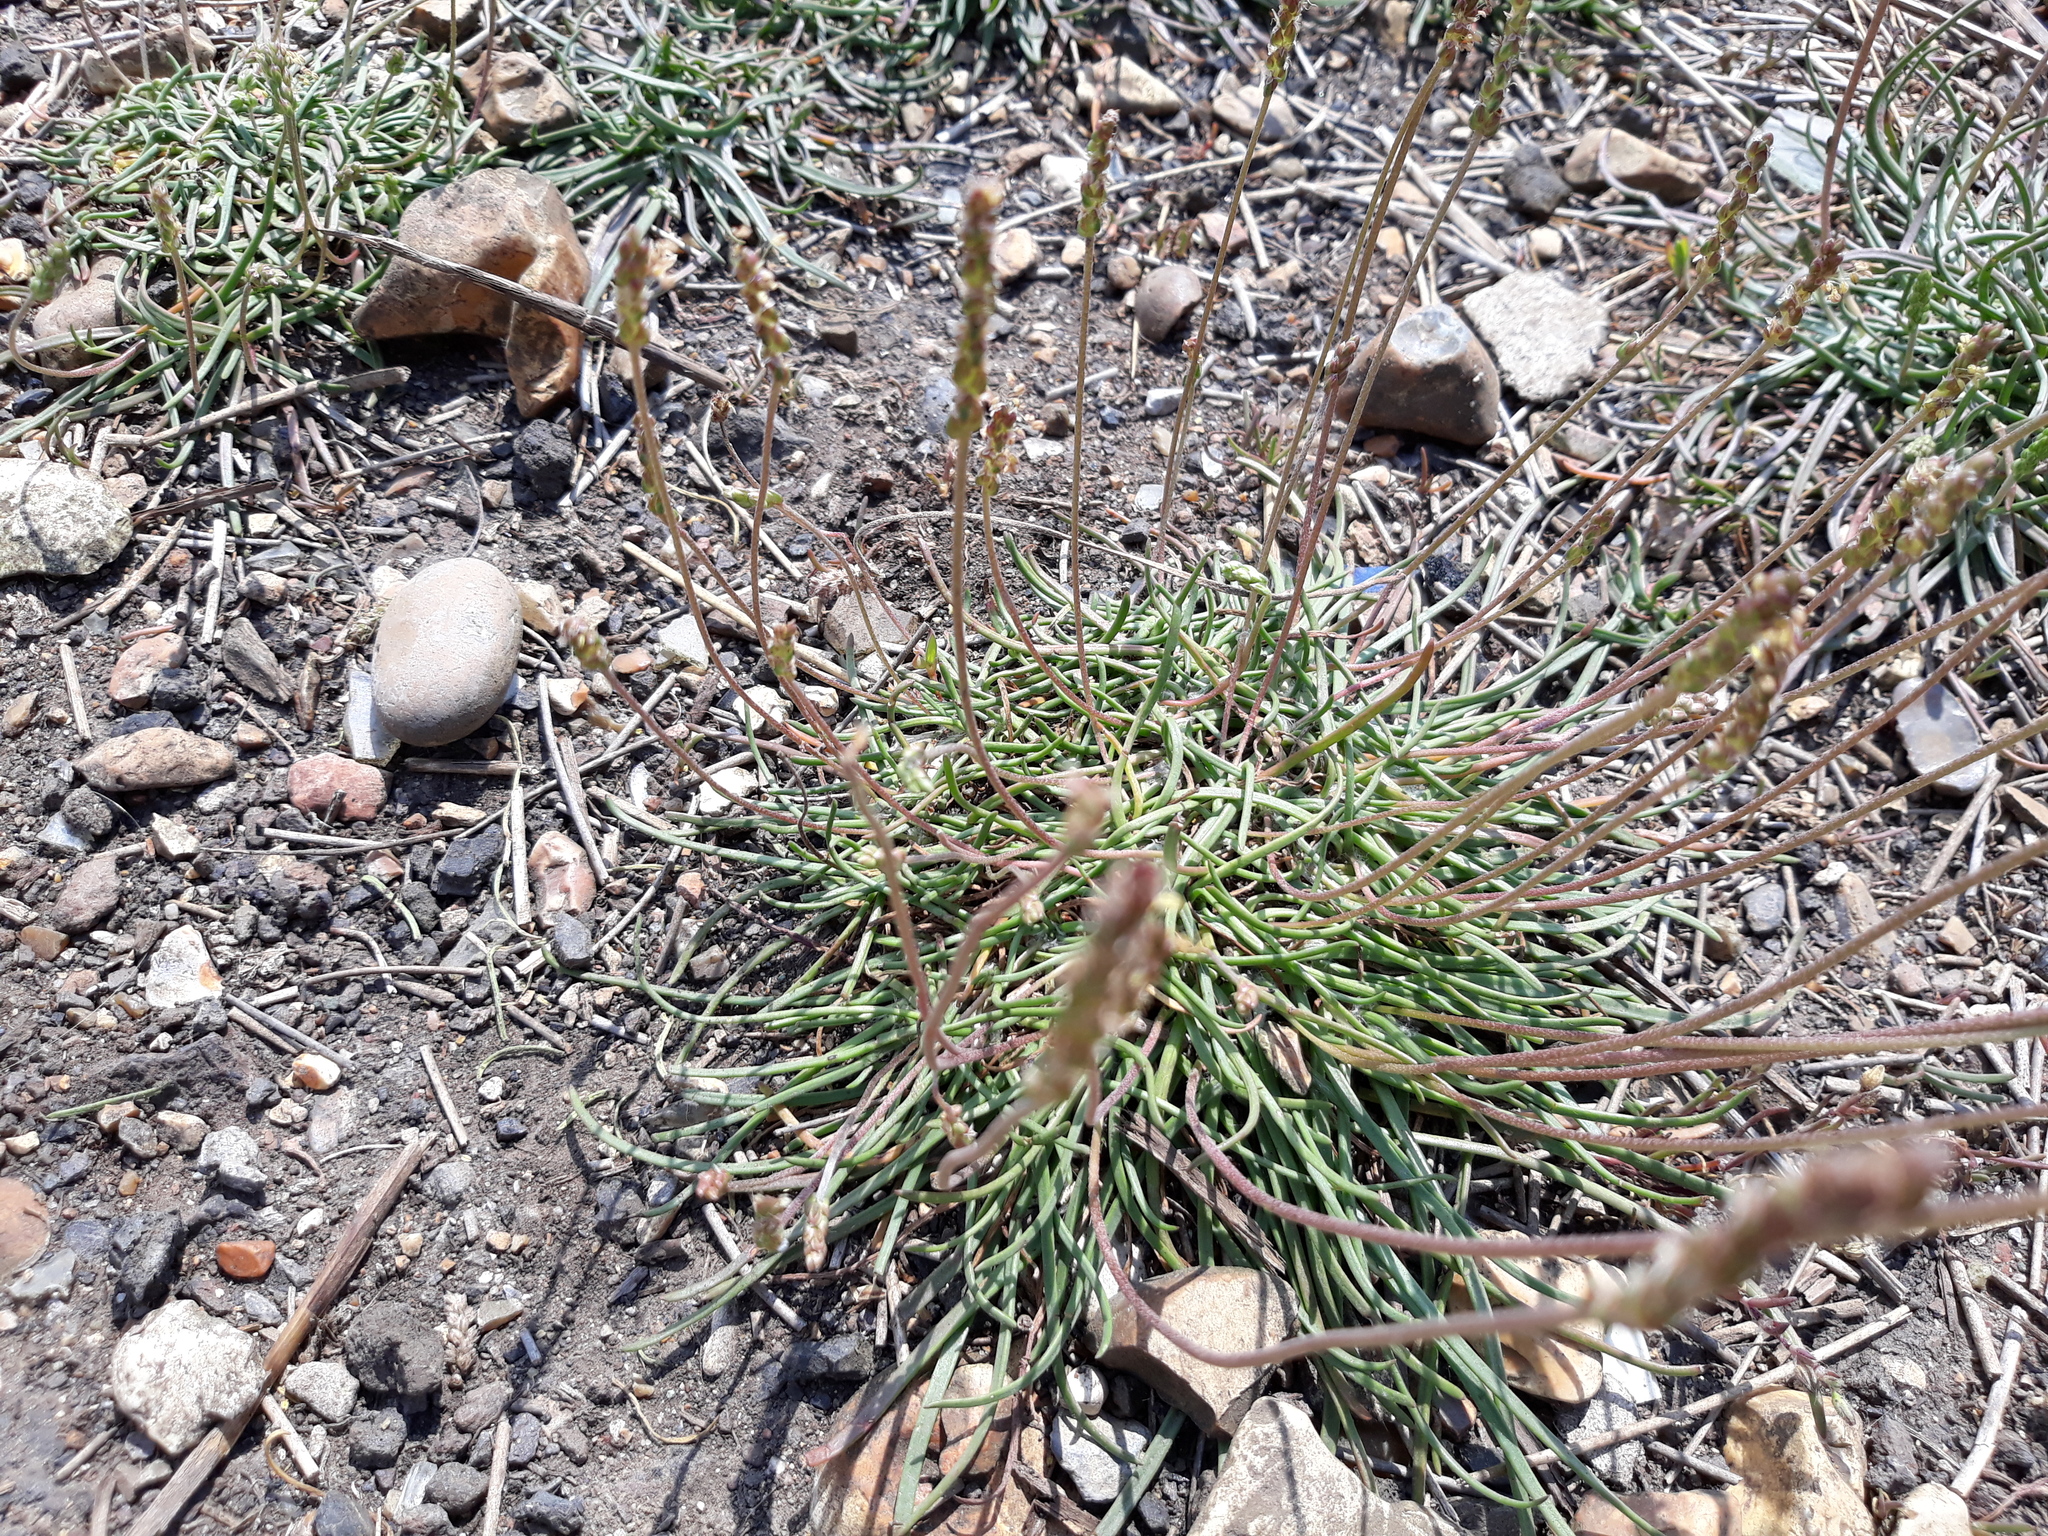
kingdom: Plantae
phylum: Tracheophyta
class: Magnoliopsida
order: Lamiales
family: Plantaginaceae
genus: Plantago
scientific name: Plantago maritima
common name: Sea plantain
